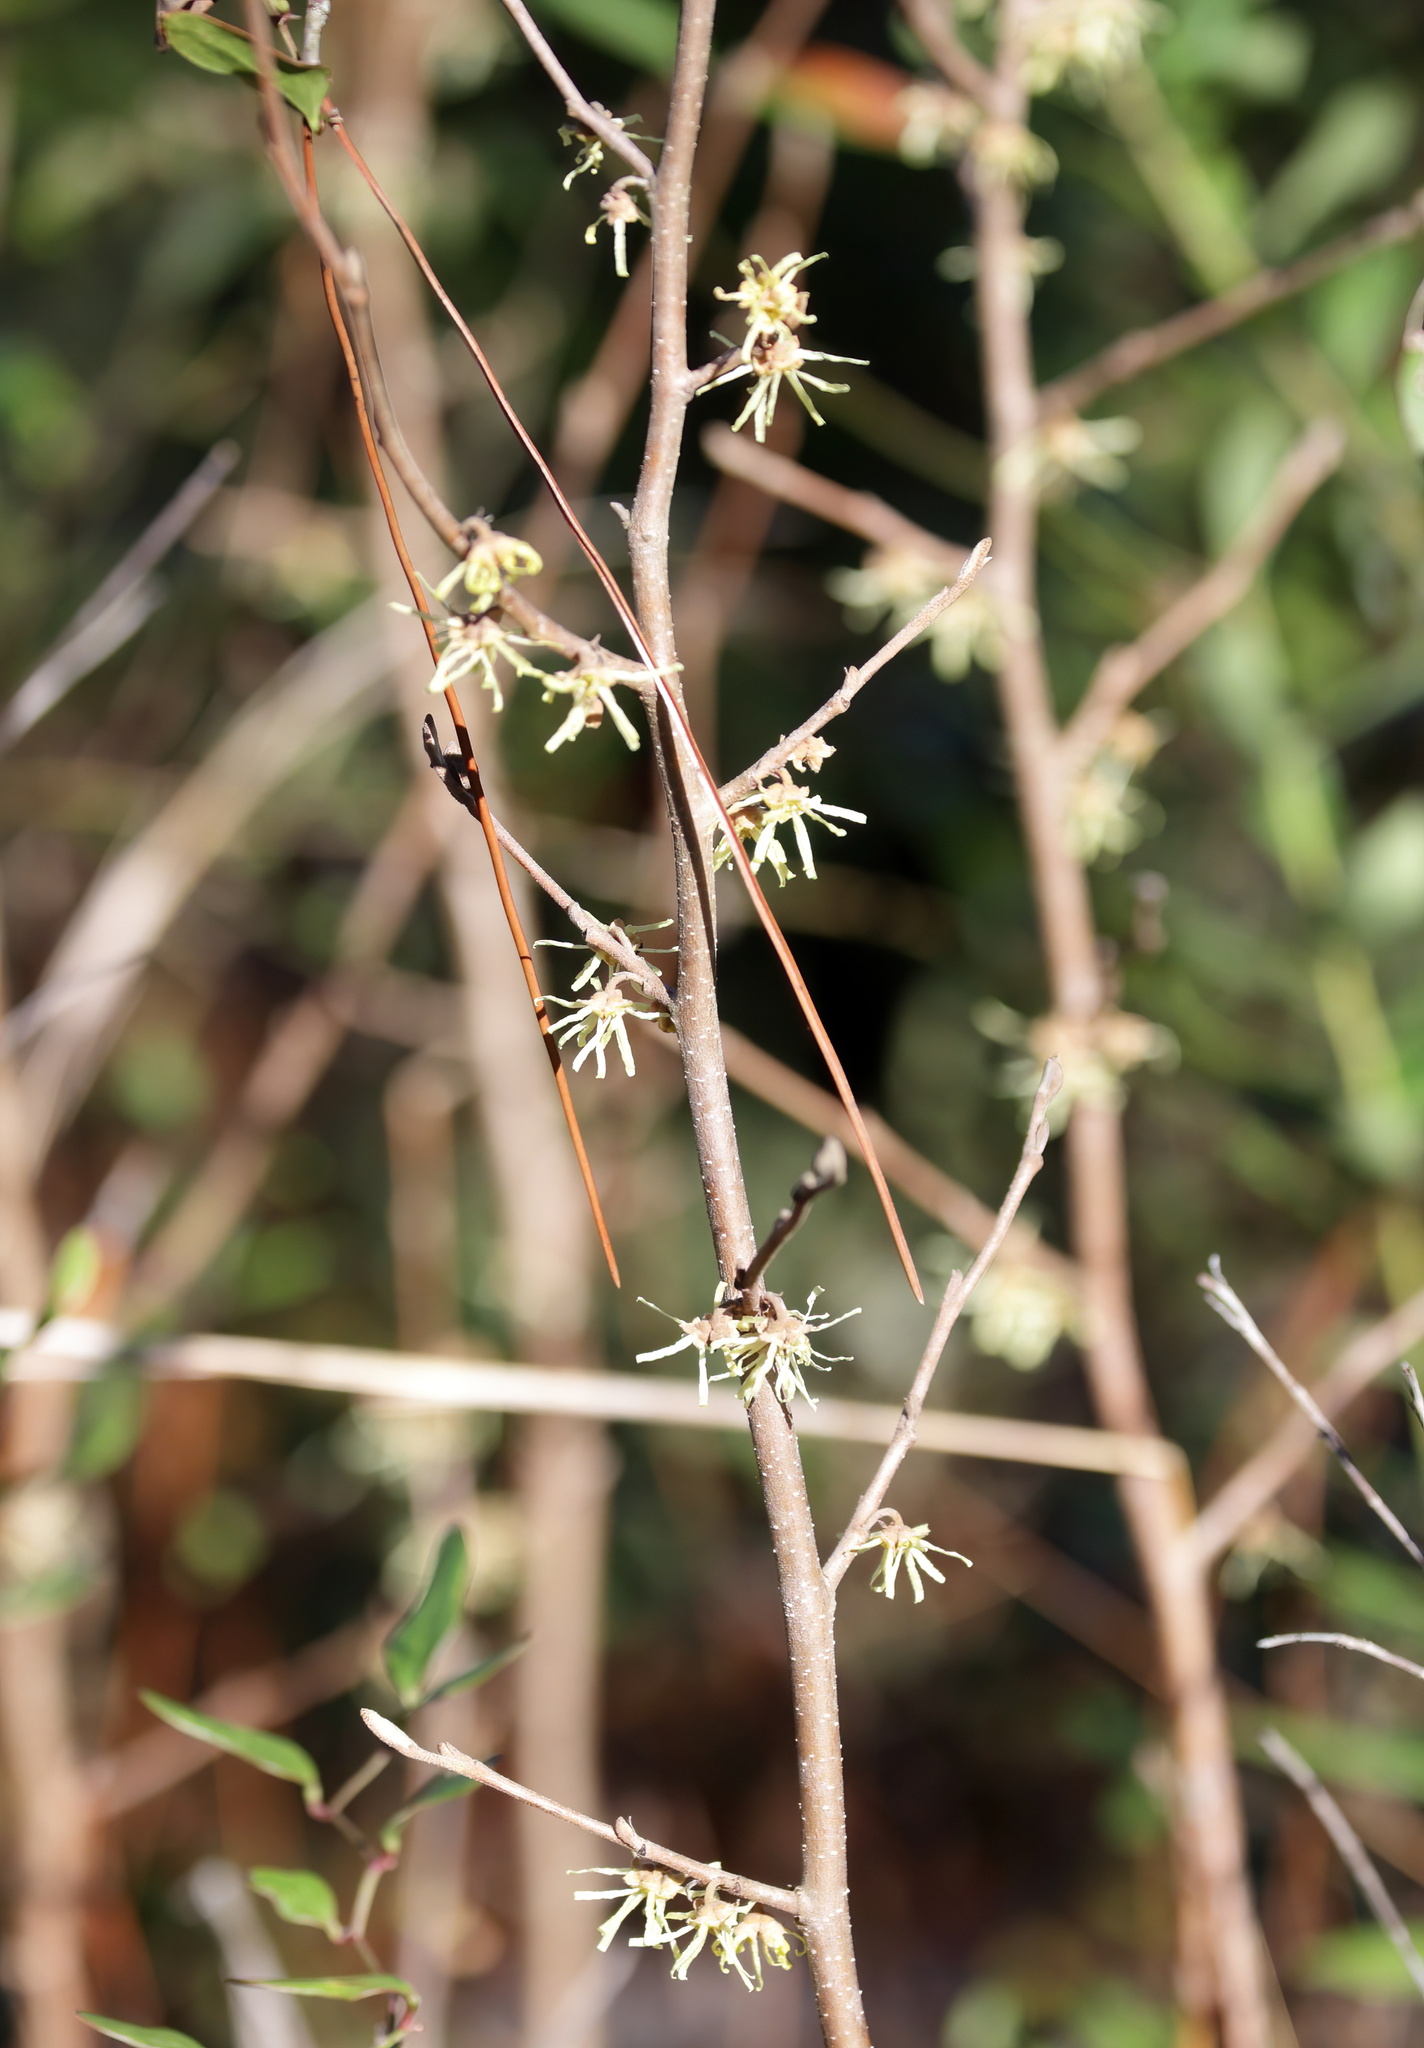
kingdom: Plantae
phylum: Tracheophyta
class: Magnoliopsida
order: Saxifragales
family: Hamamelidaceae
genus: Hamamelis
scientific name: Hamamelis virginiana
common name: Witch-hazel
